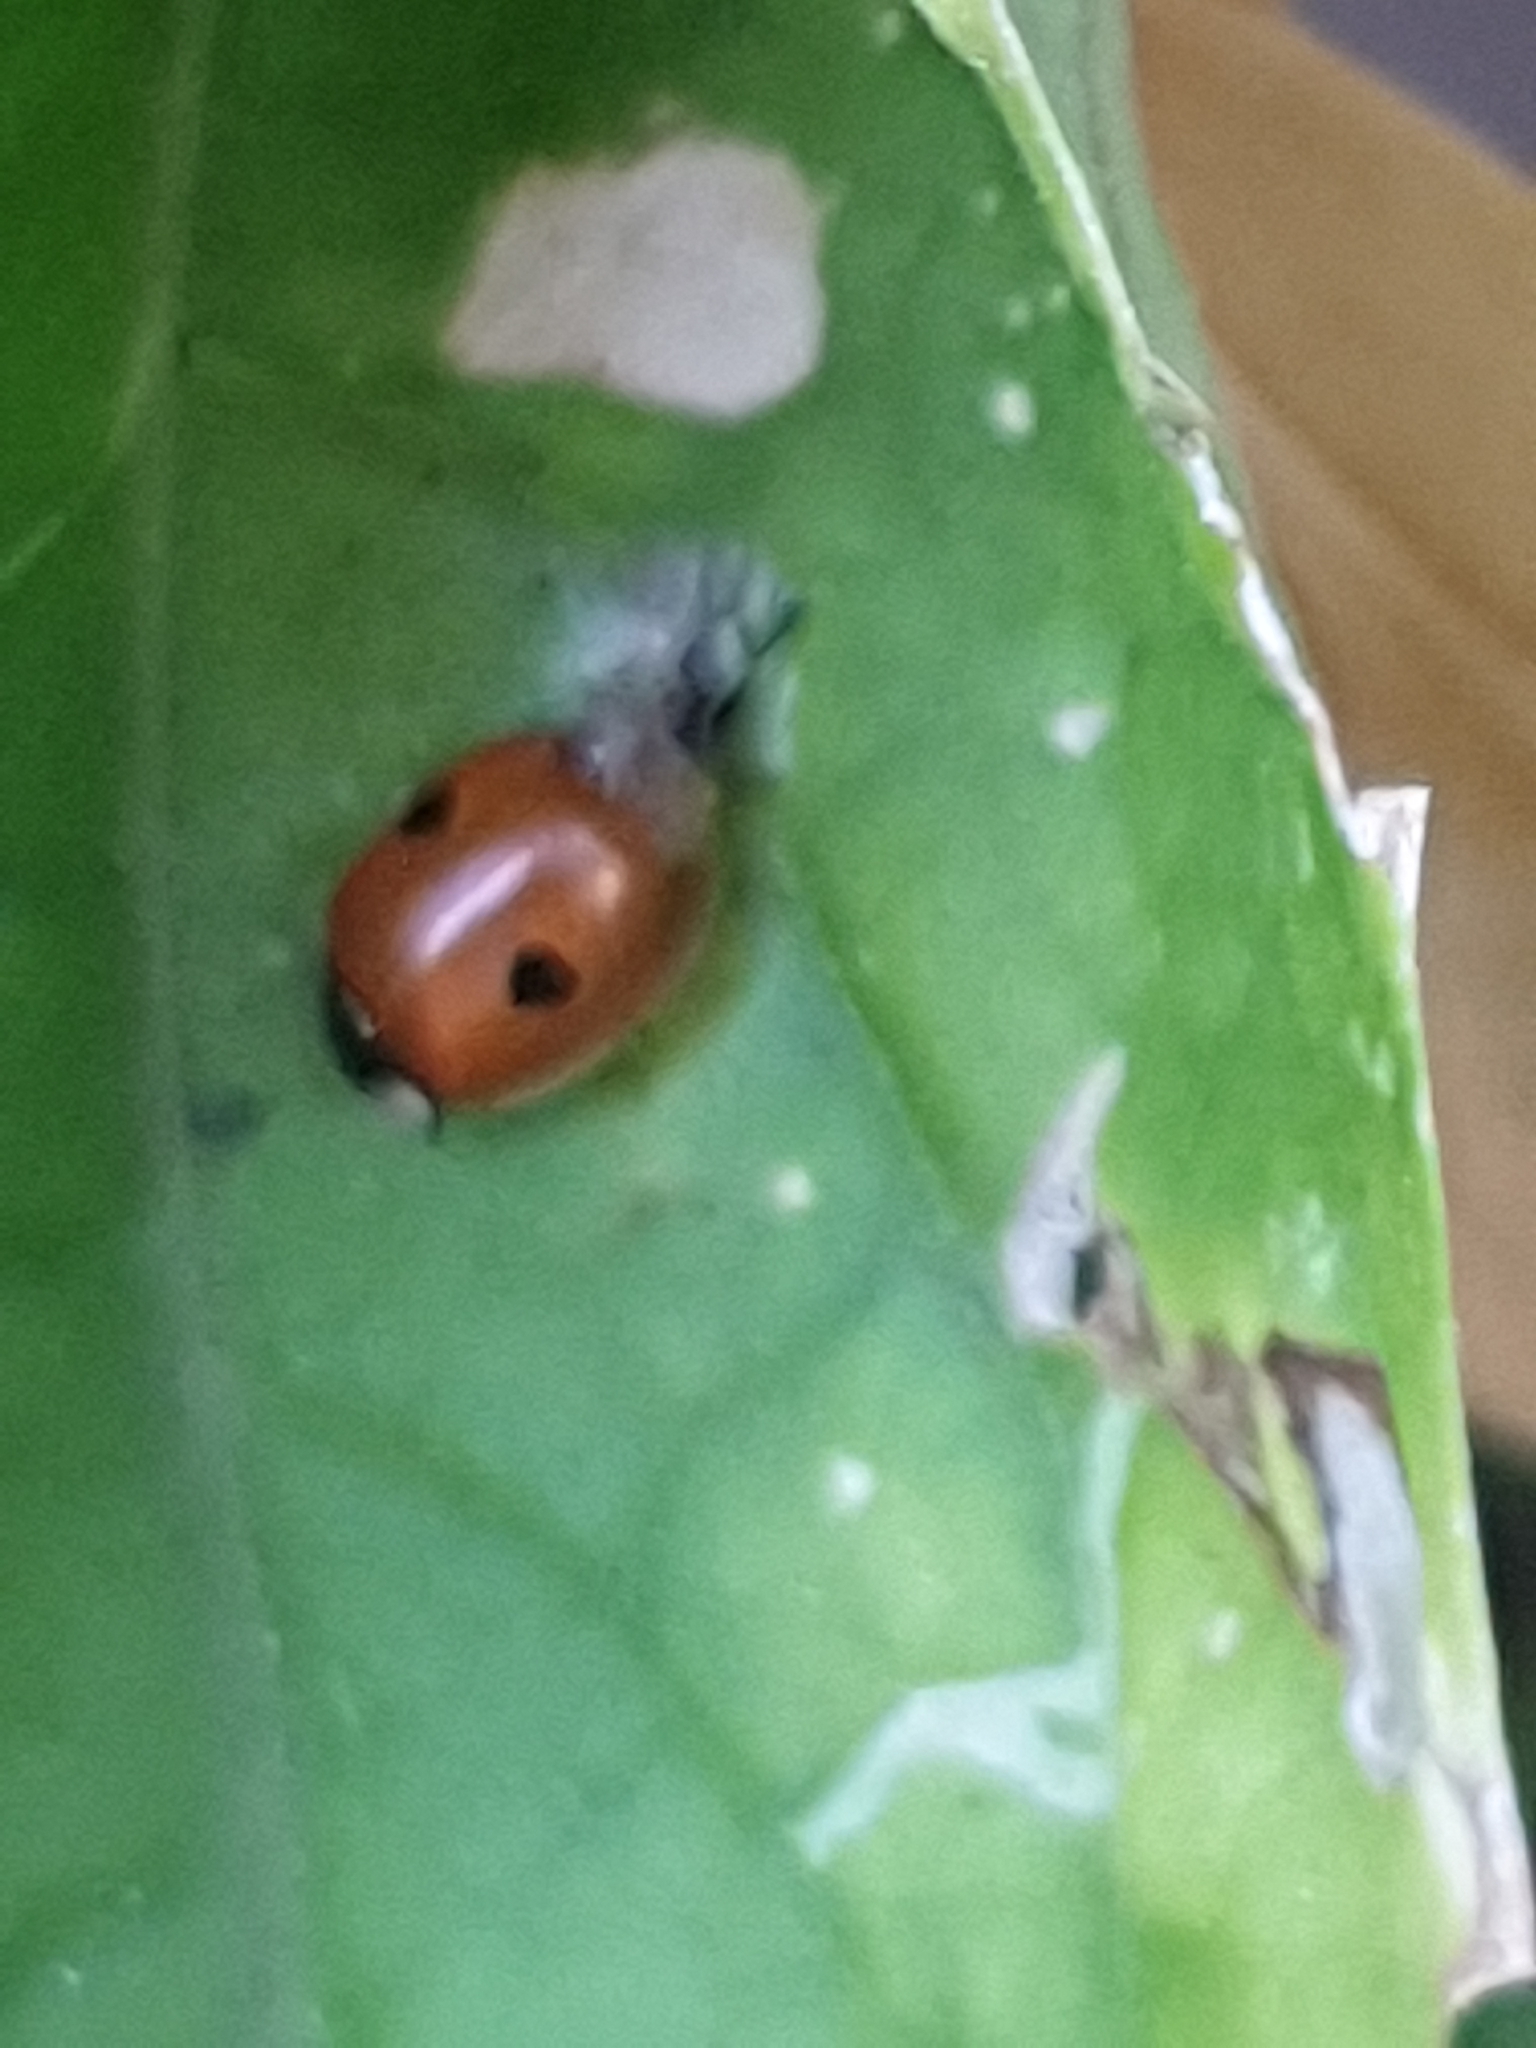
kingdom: Animalia
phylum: Arthropoda
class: Insecta
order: Coleoptera
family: Coccinellidae
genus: Adalia
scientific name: Adalia bipunctata
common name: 2-spot ladybird
